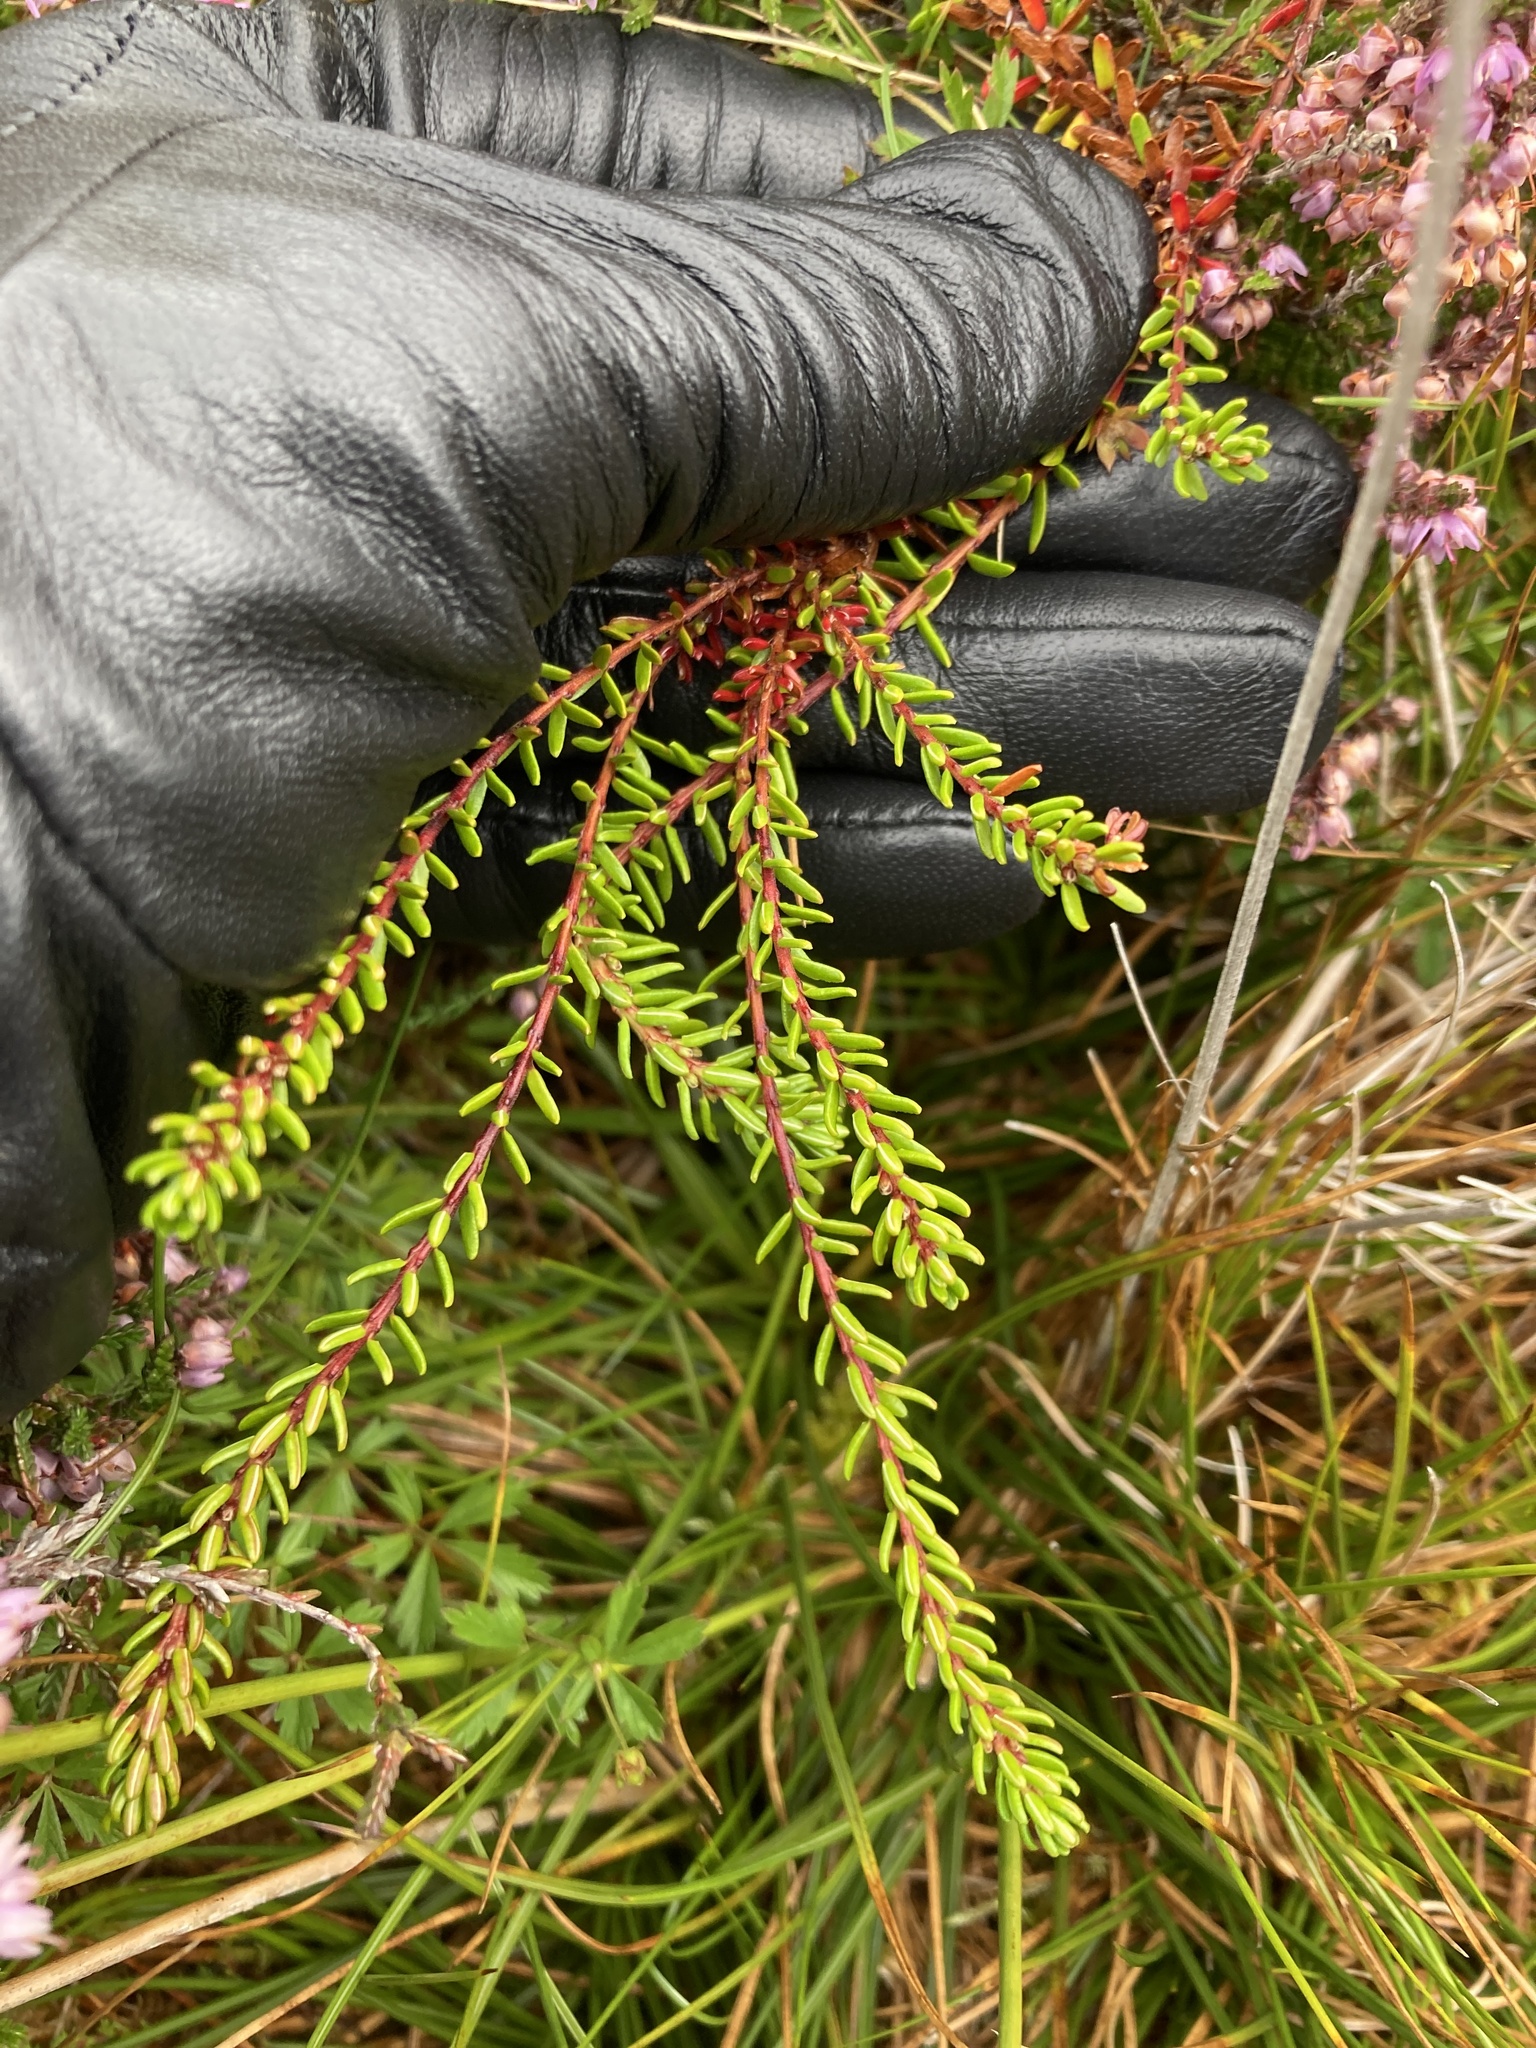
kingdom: Plantae
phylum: Tracheophyta
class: Magnoliopsida
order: Ericales
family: Ericaceae
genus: Empetrum
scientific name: Empetrum nigrum
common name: Black crowberry
